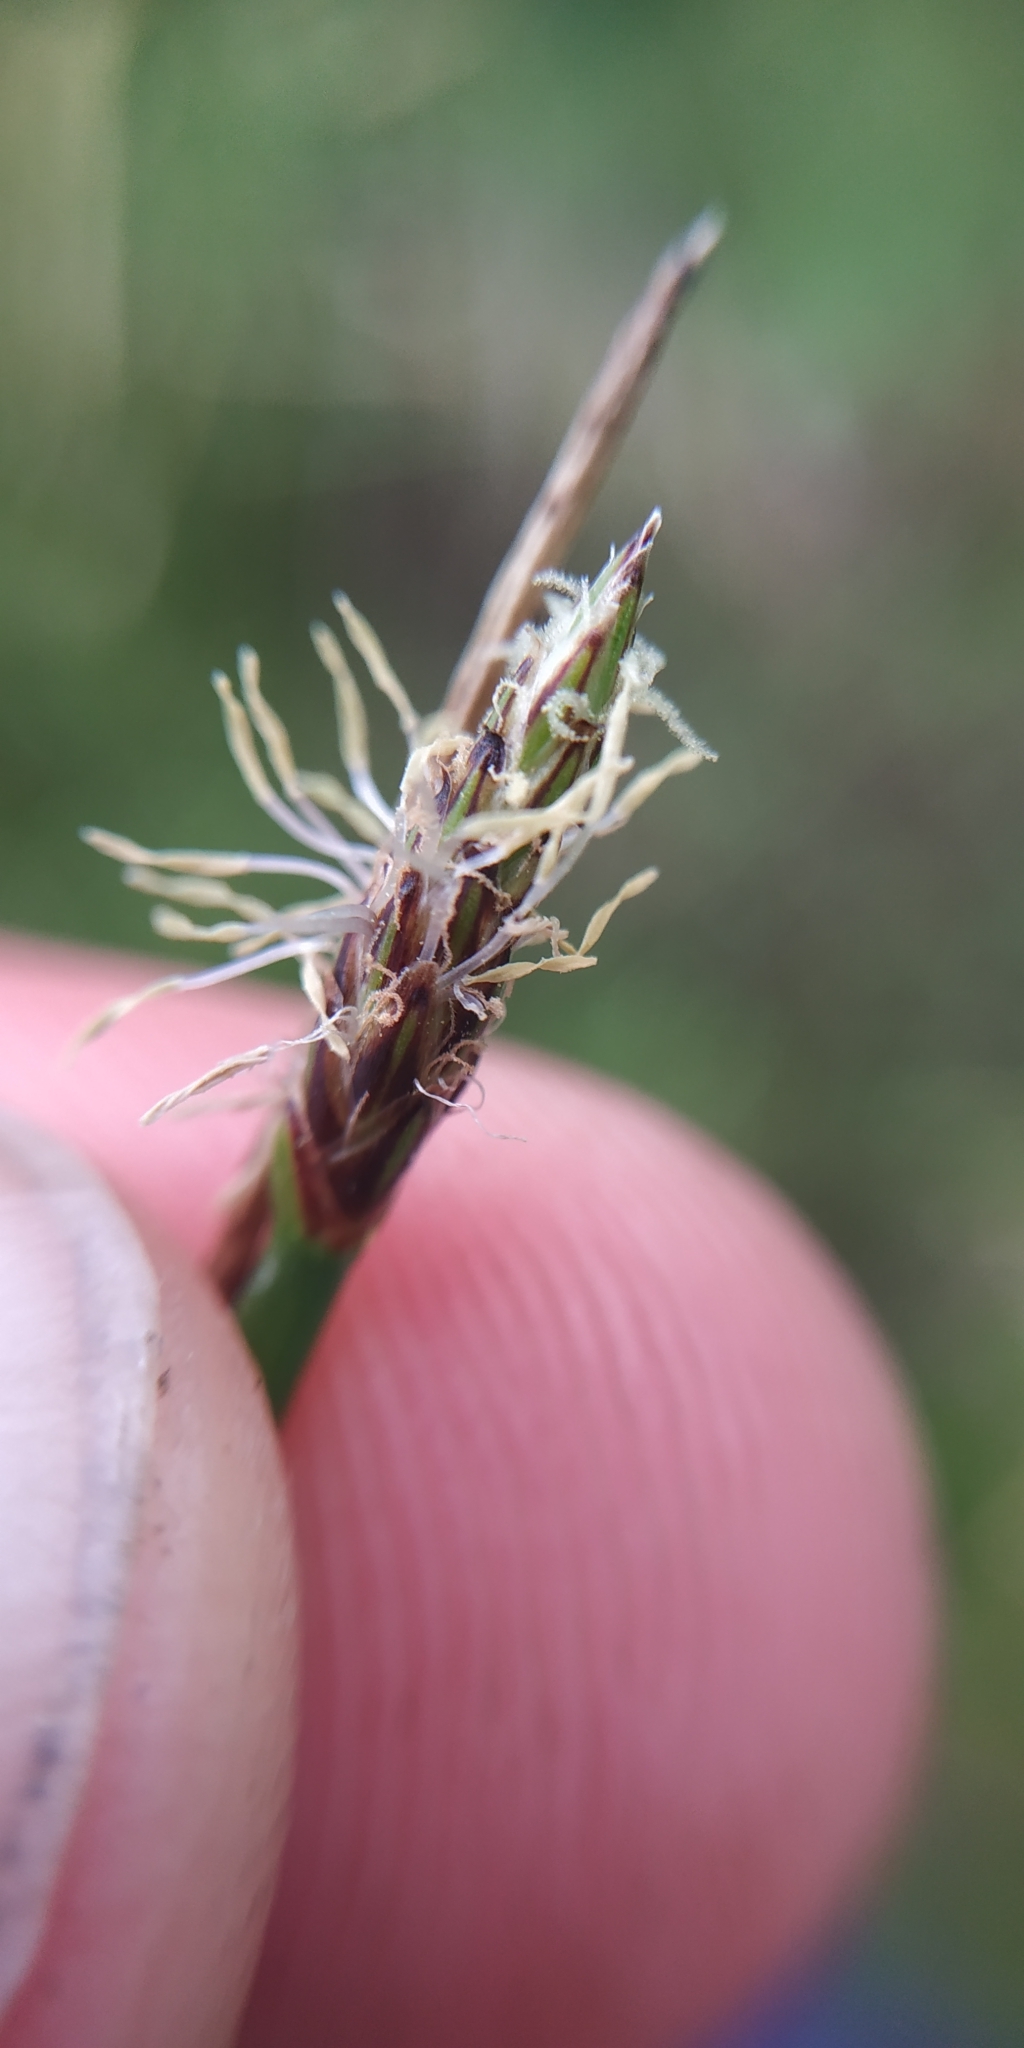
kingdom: Plantae
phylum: Tracheophyta
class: Liliopsida
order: Poales
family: Cyperaceae
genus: Eleocharis
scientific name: Eleocharis palustris
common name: Common spike-rush
